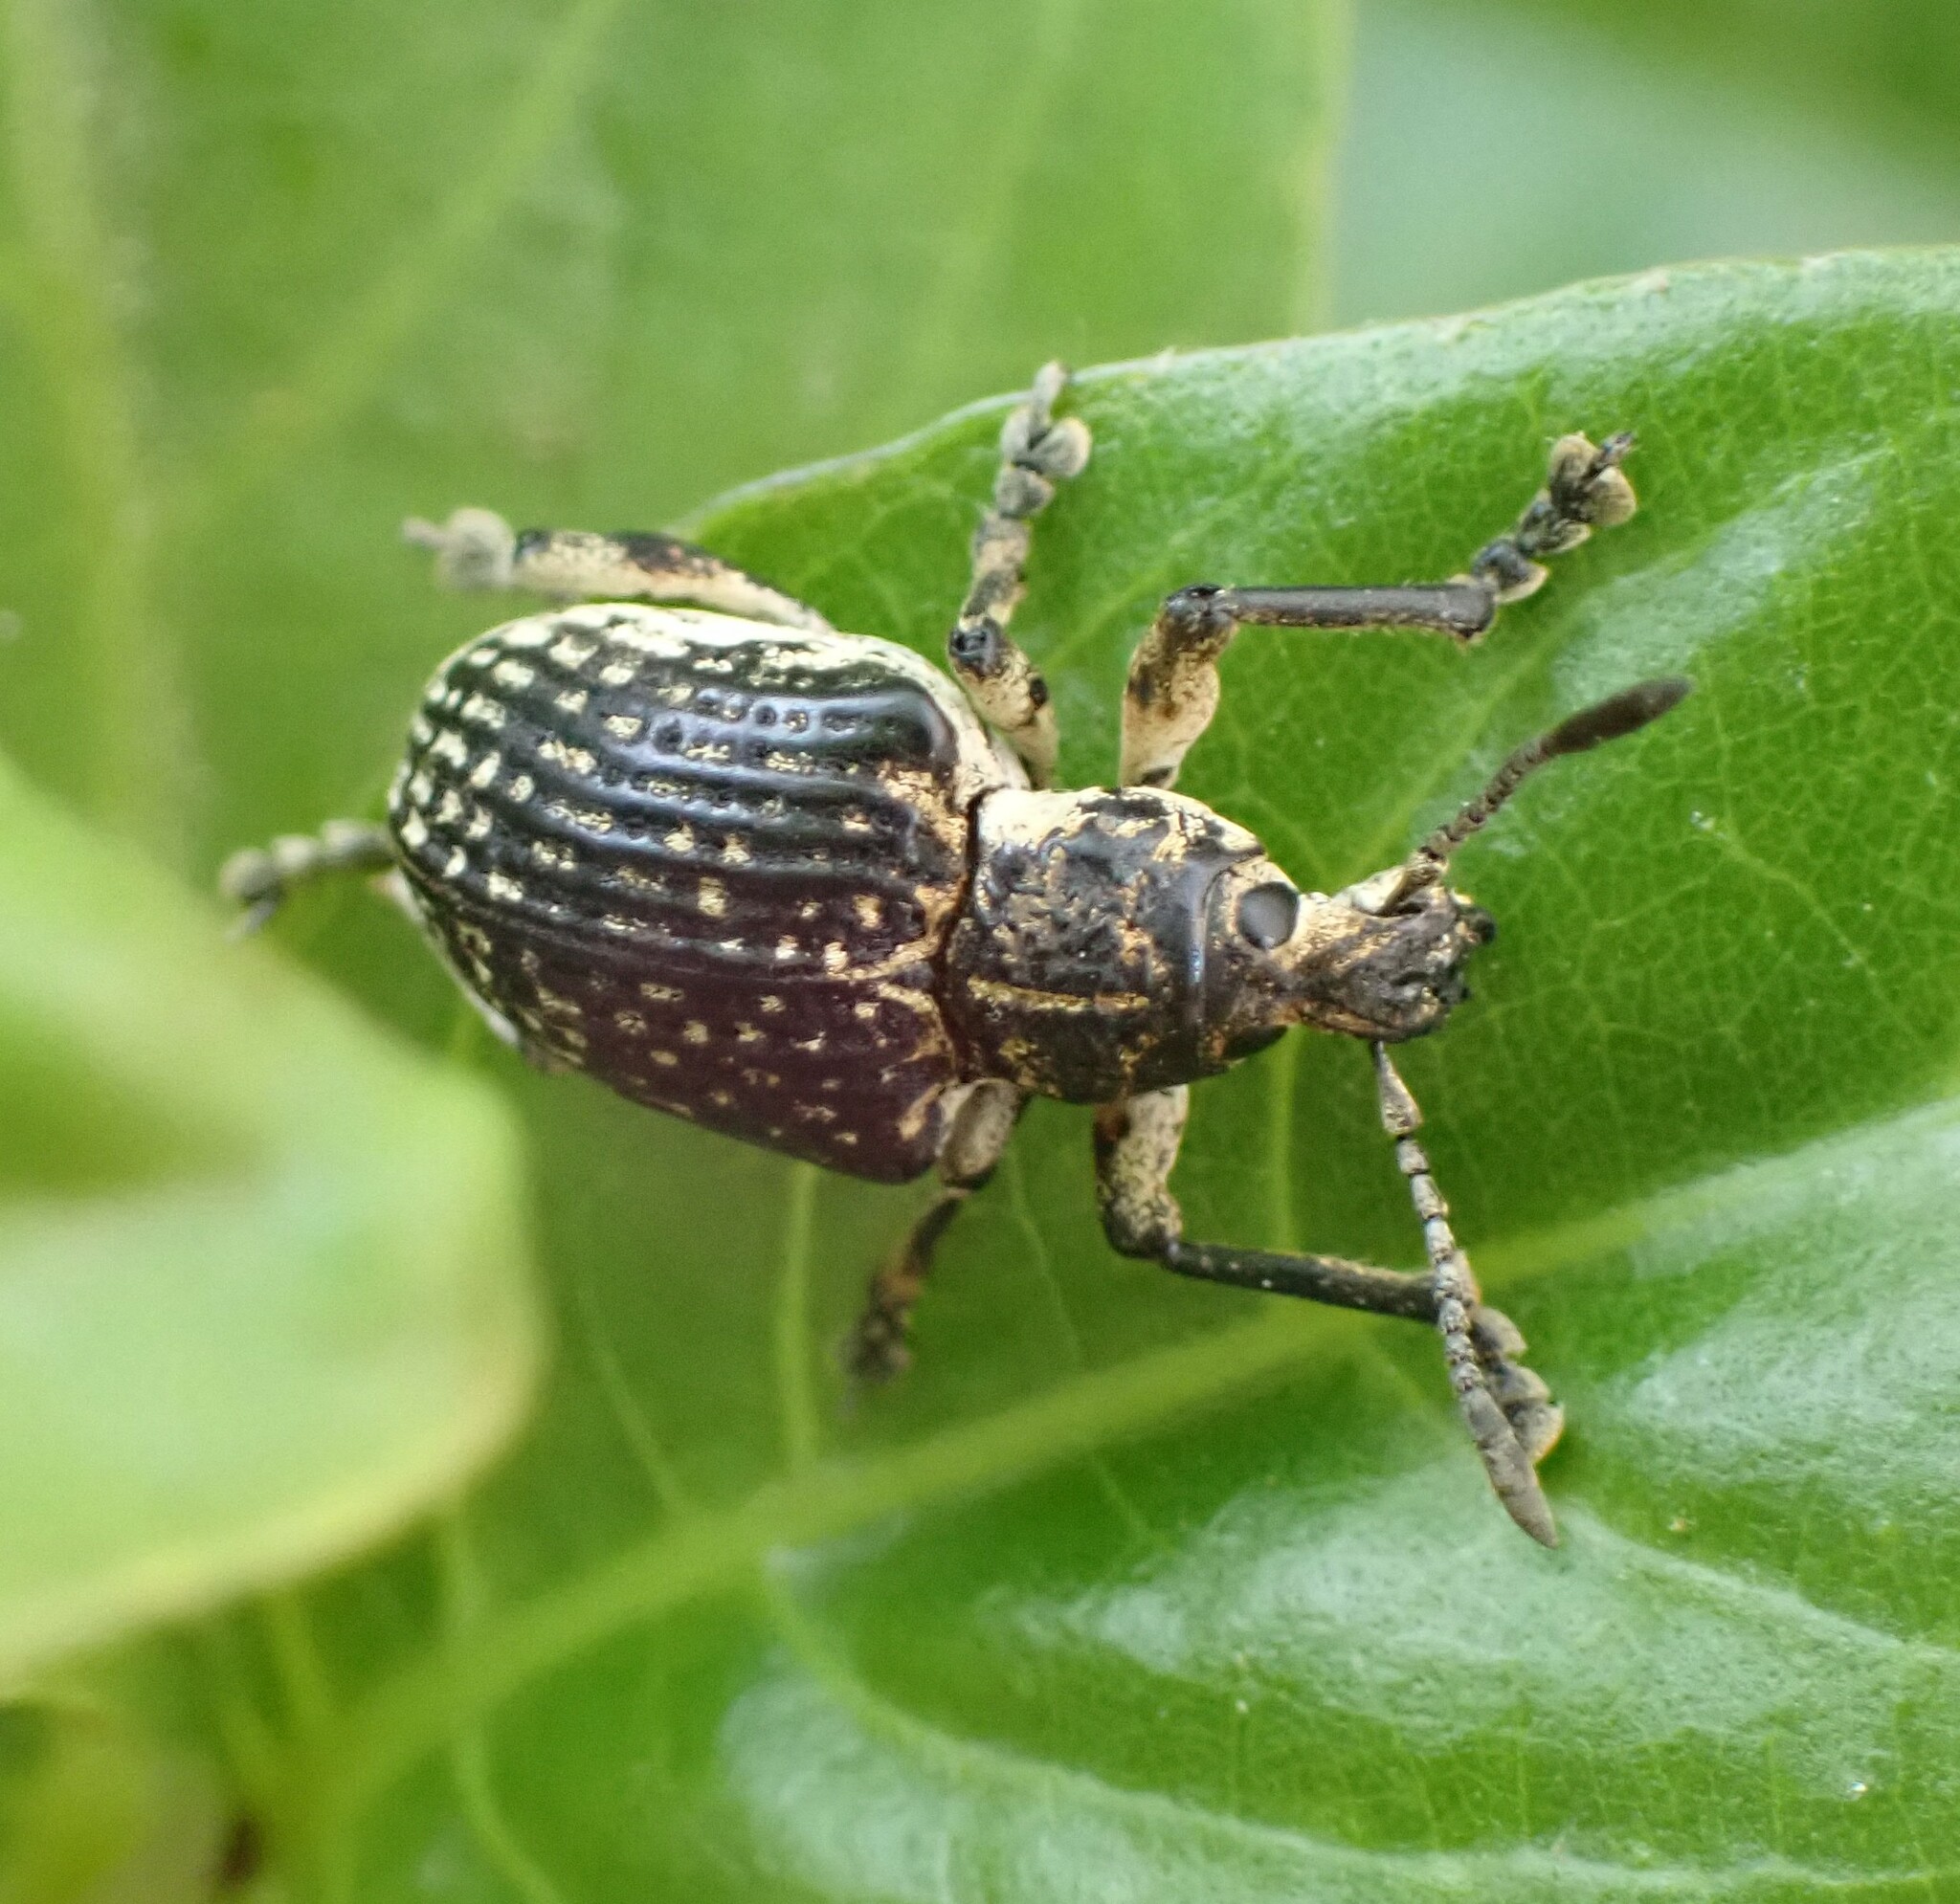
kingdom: Animalia
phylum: Arthropoda
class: Insecta
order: Coleoptera
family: Curculionidae
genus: Cydianerus
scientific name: Cydianerus latruncularius
